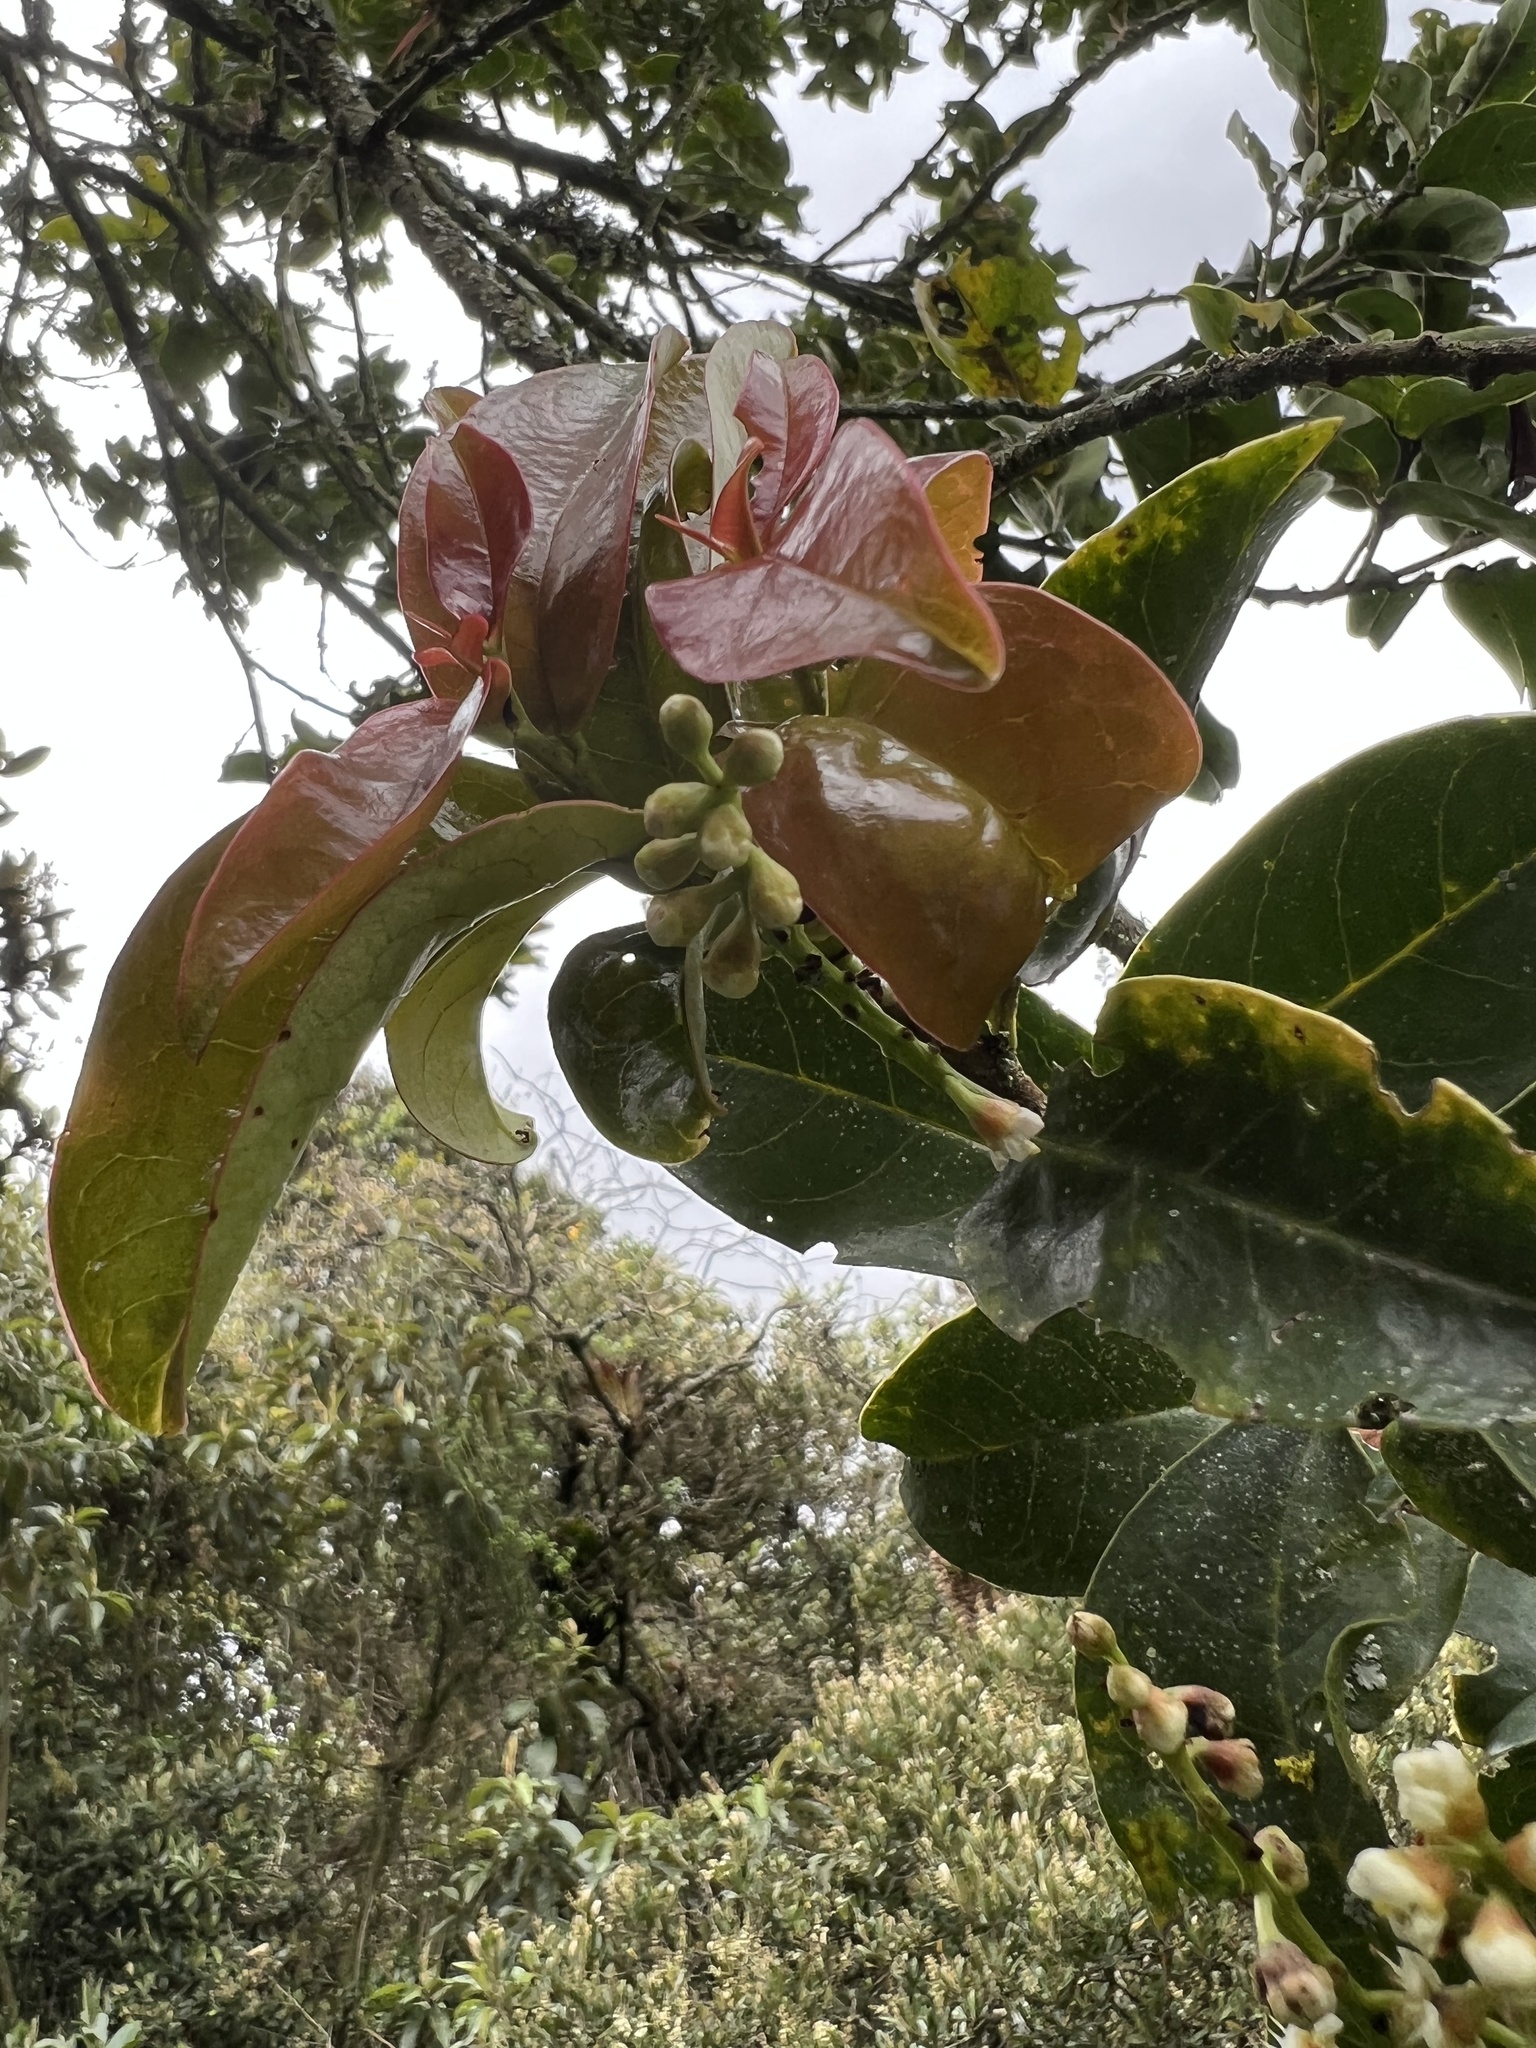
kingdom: Plantae
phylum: Tracheophyta
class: Magnoliopsida
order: Rosales
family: Rosaceae
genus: Prunus
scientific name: Prunus buxifolia
